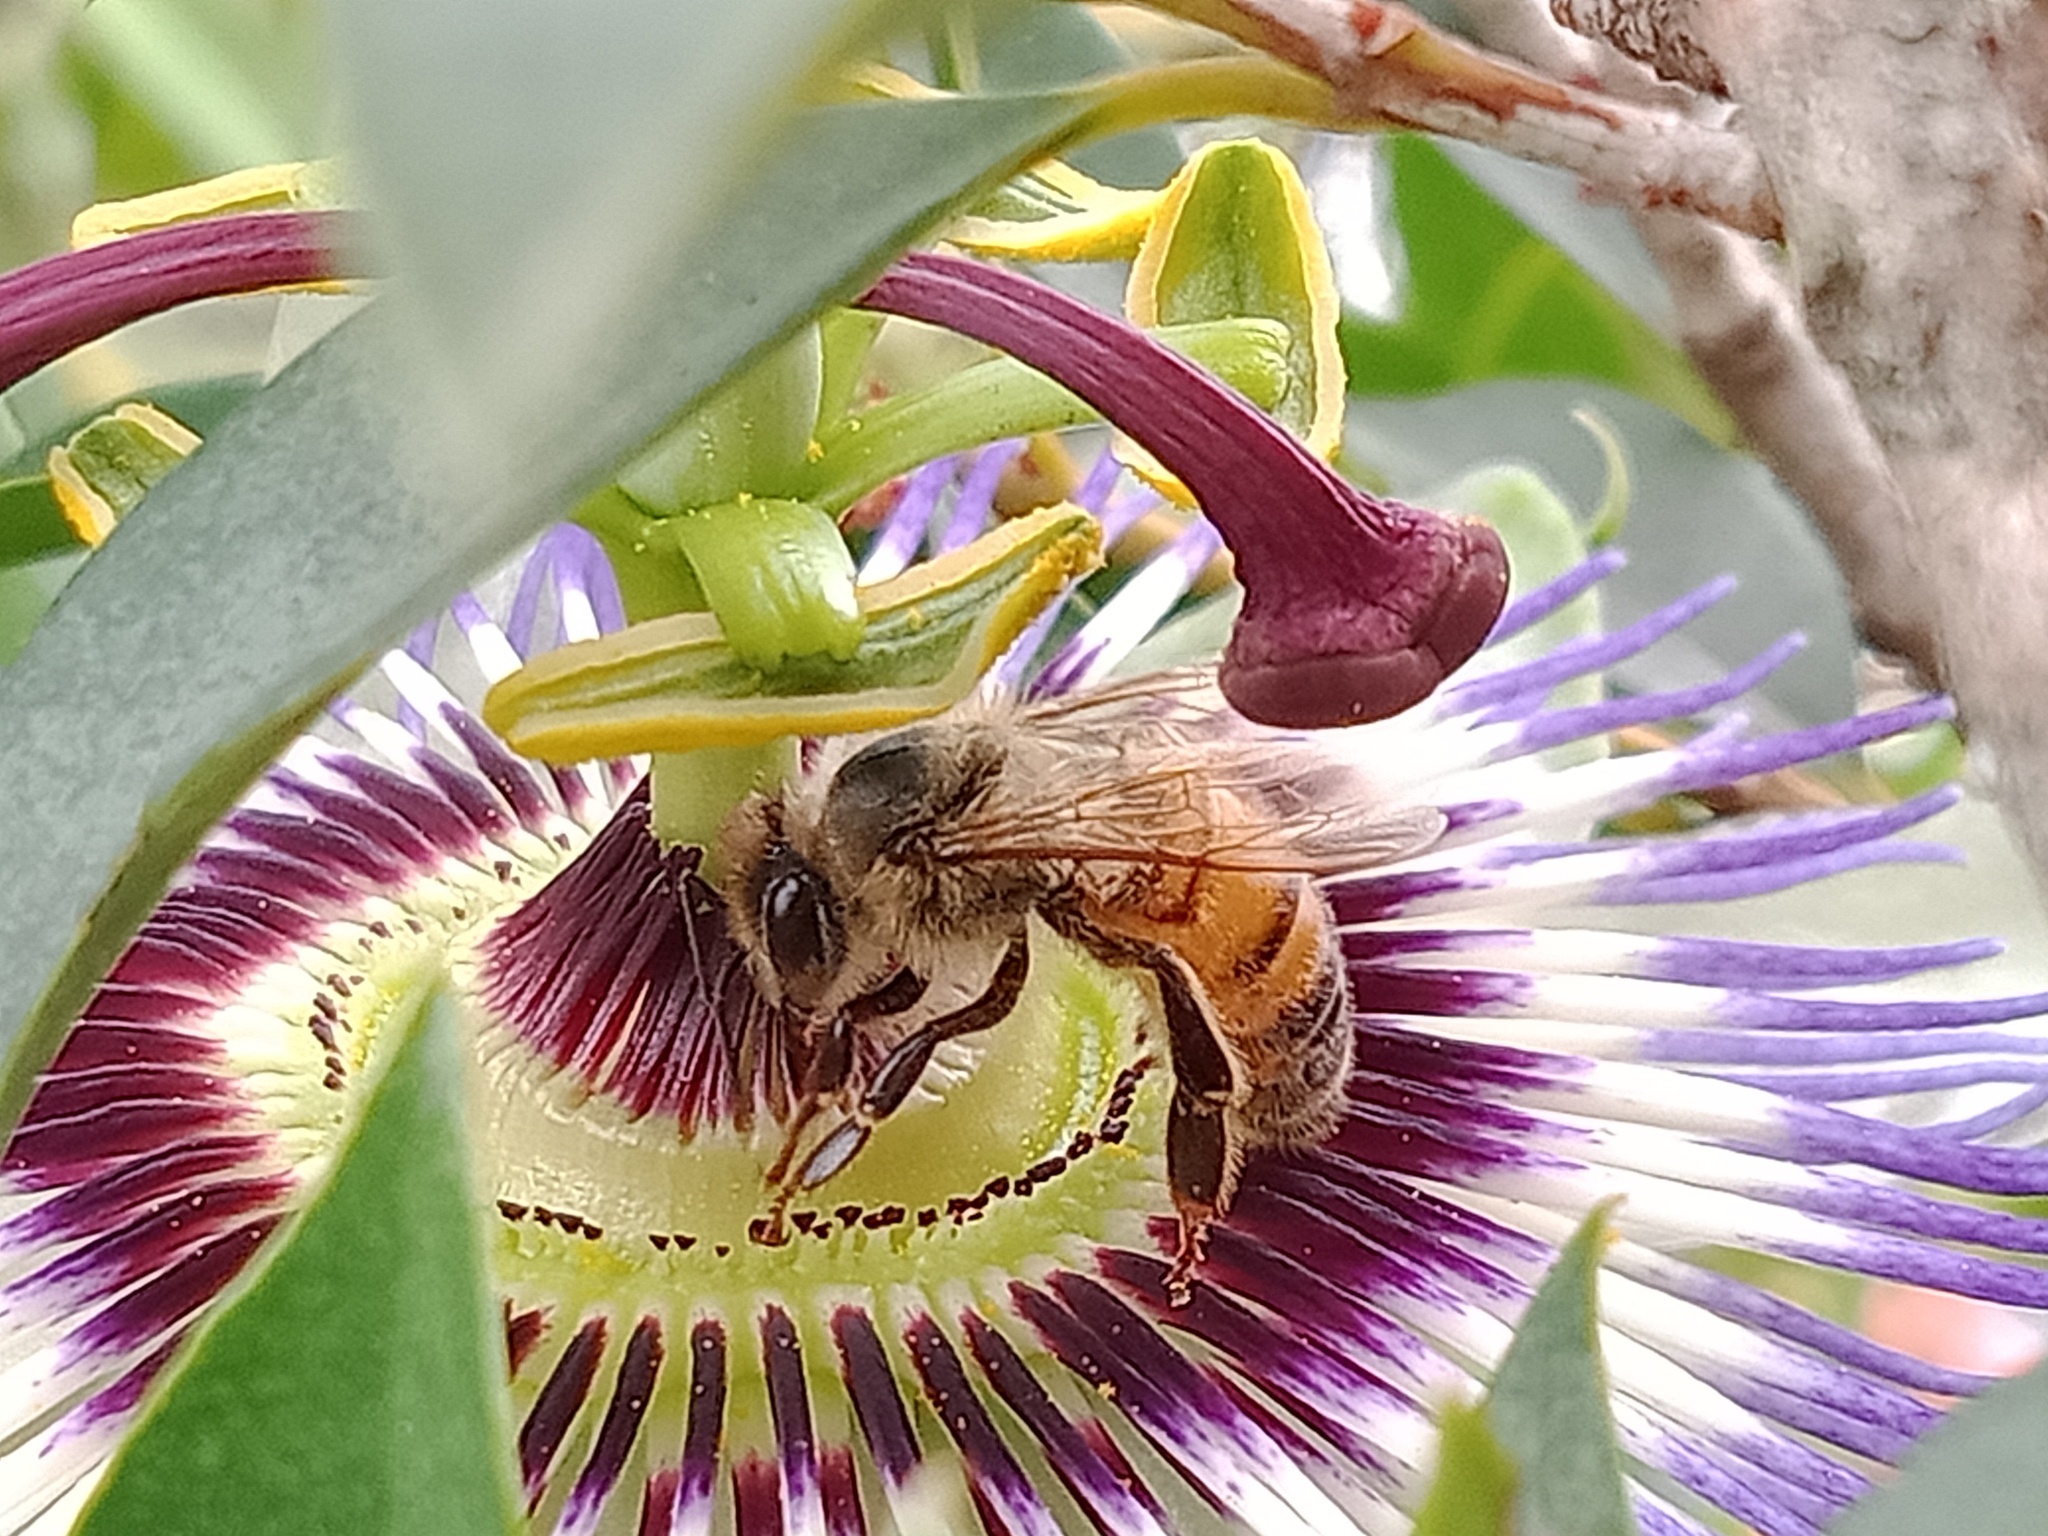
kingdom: Animalia
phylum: Arthropoda
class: Insecta
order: Hymenoptera
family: Apidae
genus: Apis
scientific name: Apis mellifera
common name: Honey bee
